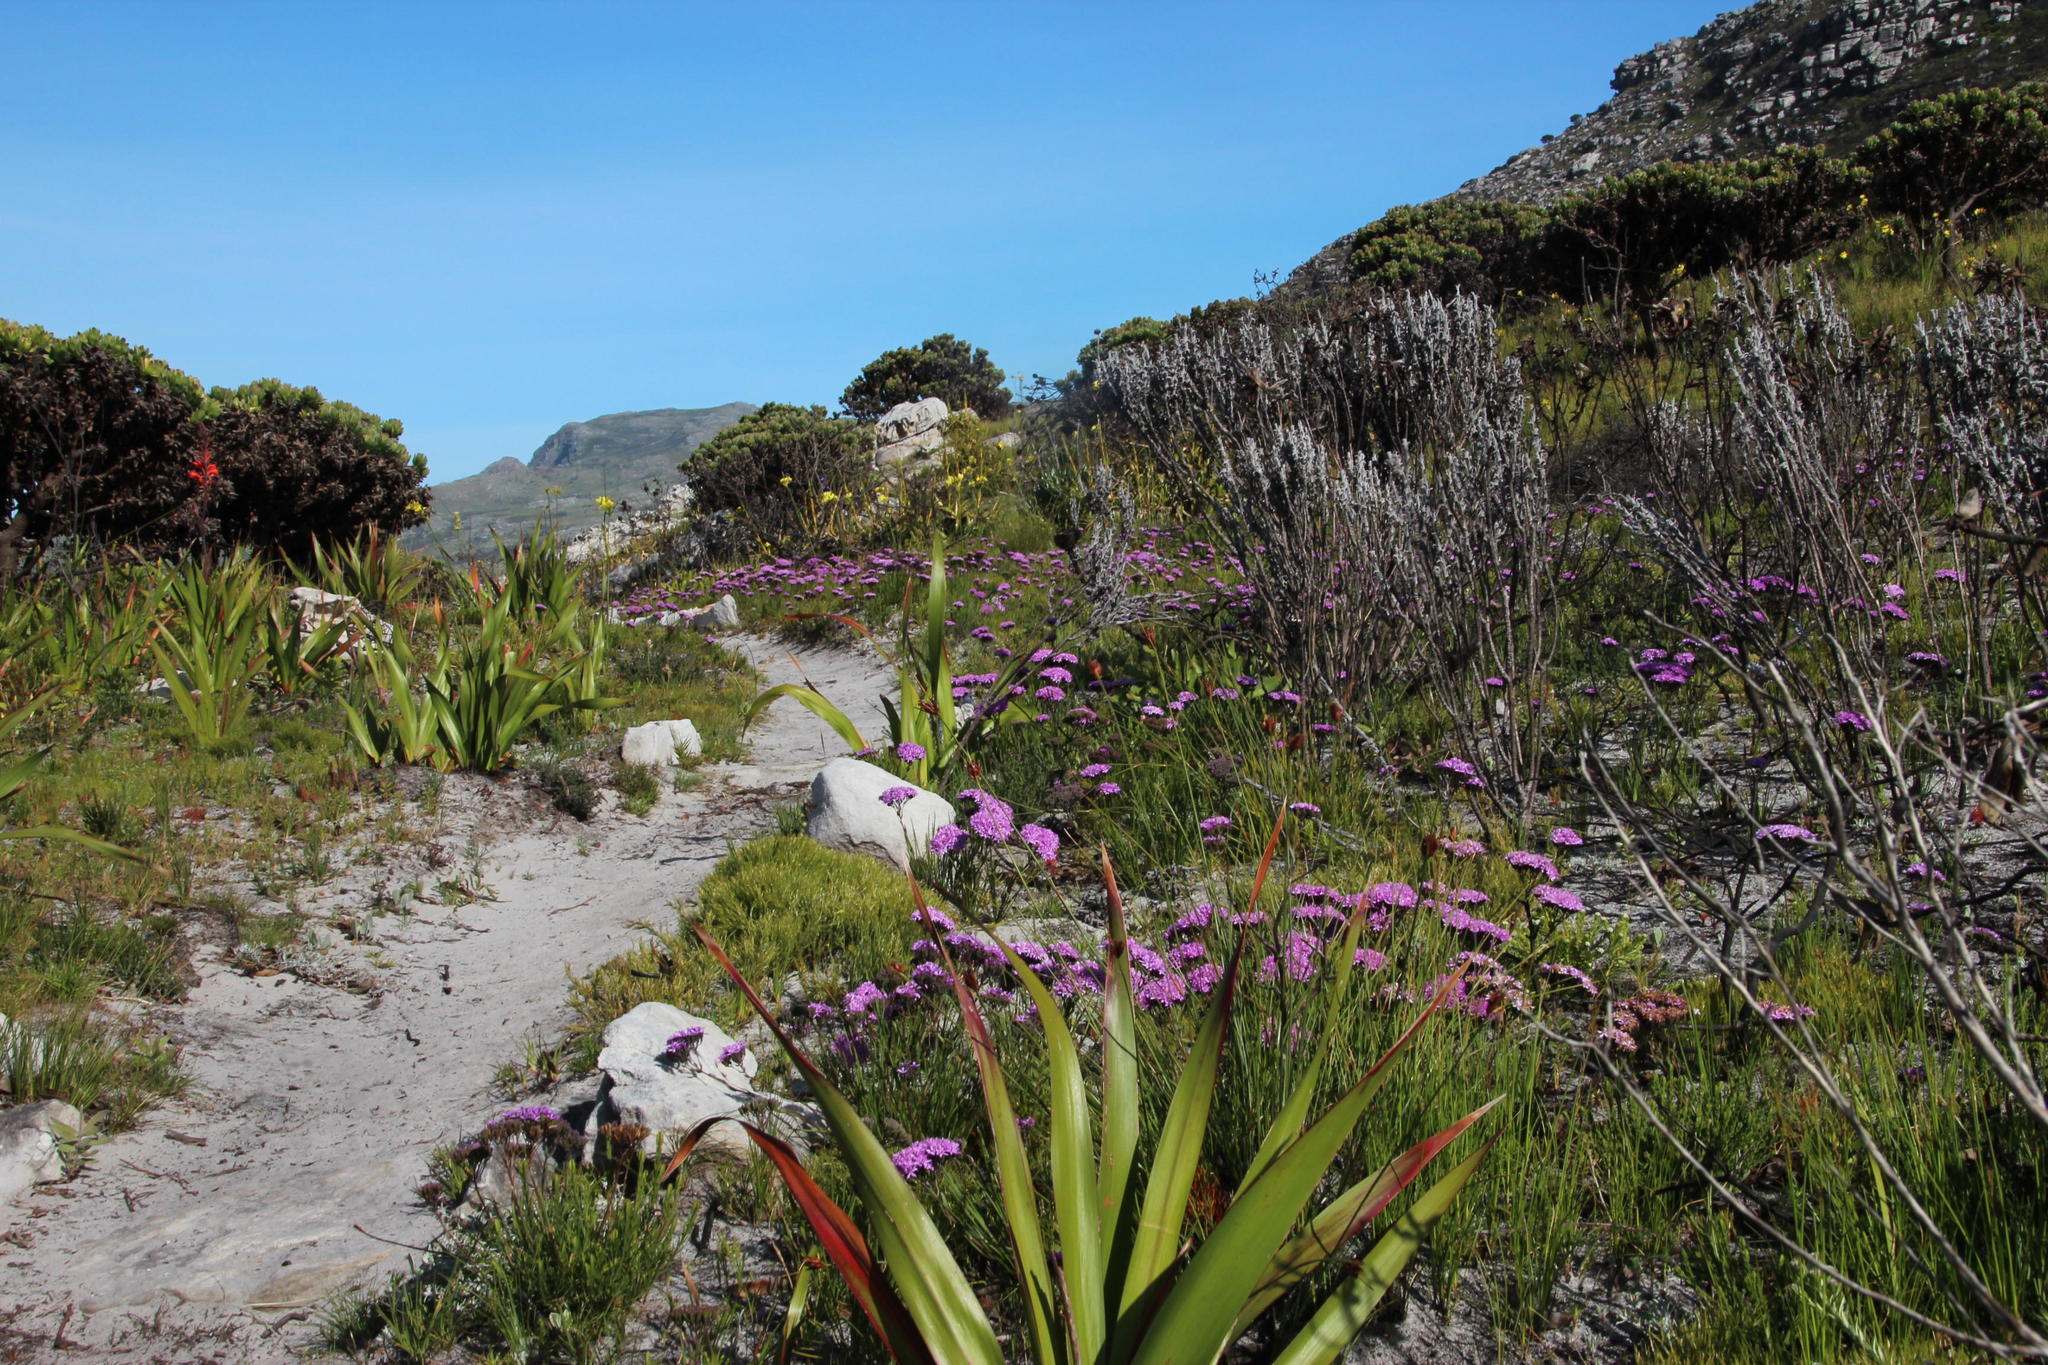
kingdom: Plantae
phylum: Tracheophyta
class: Liliopsida
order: Asparagales
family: Iridaceae
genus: Watsonia
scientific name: Watsonia tabularis
